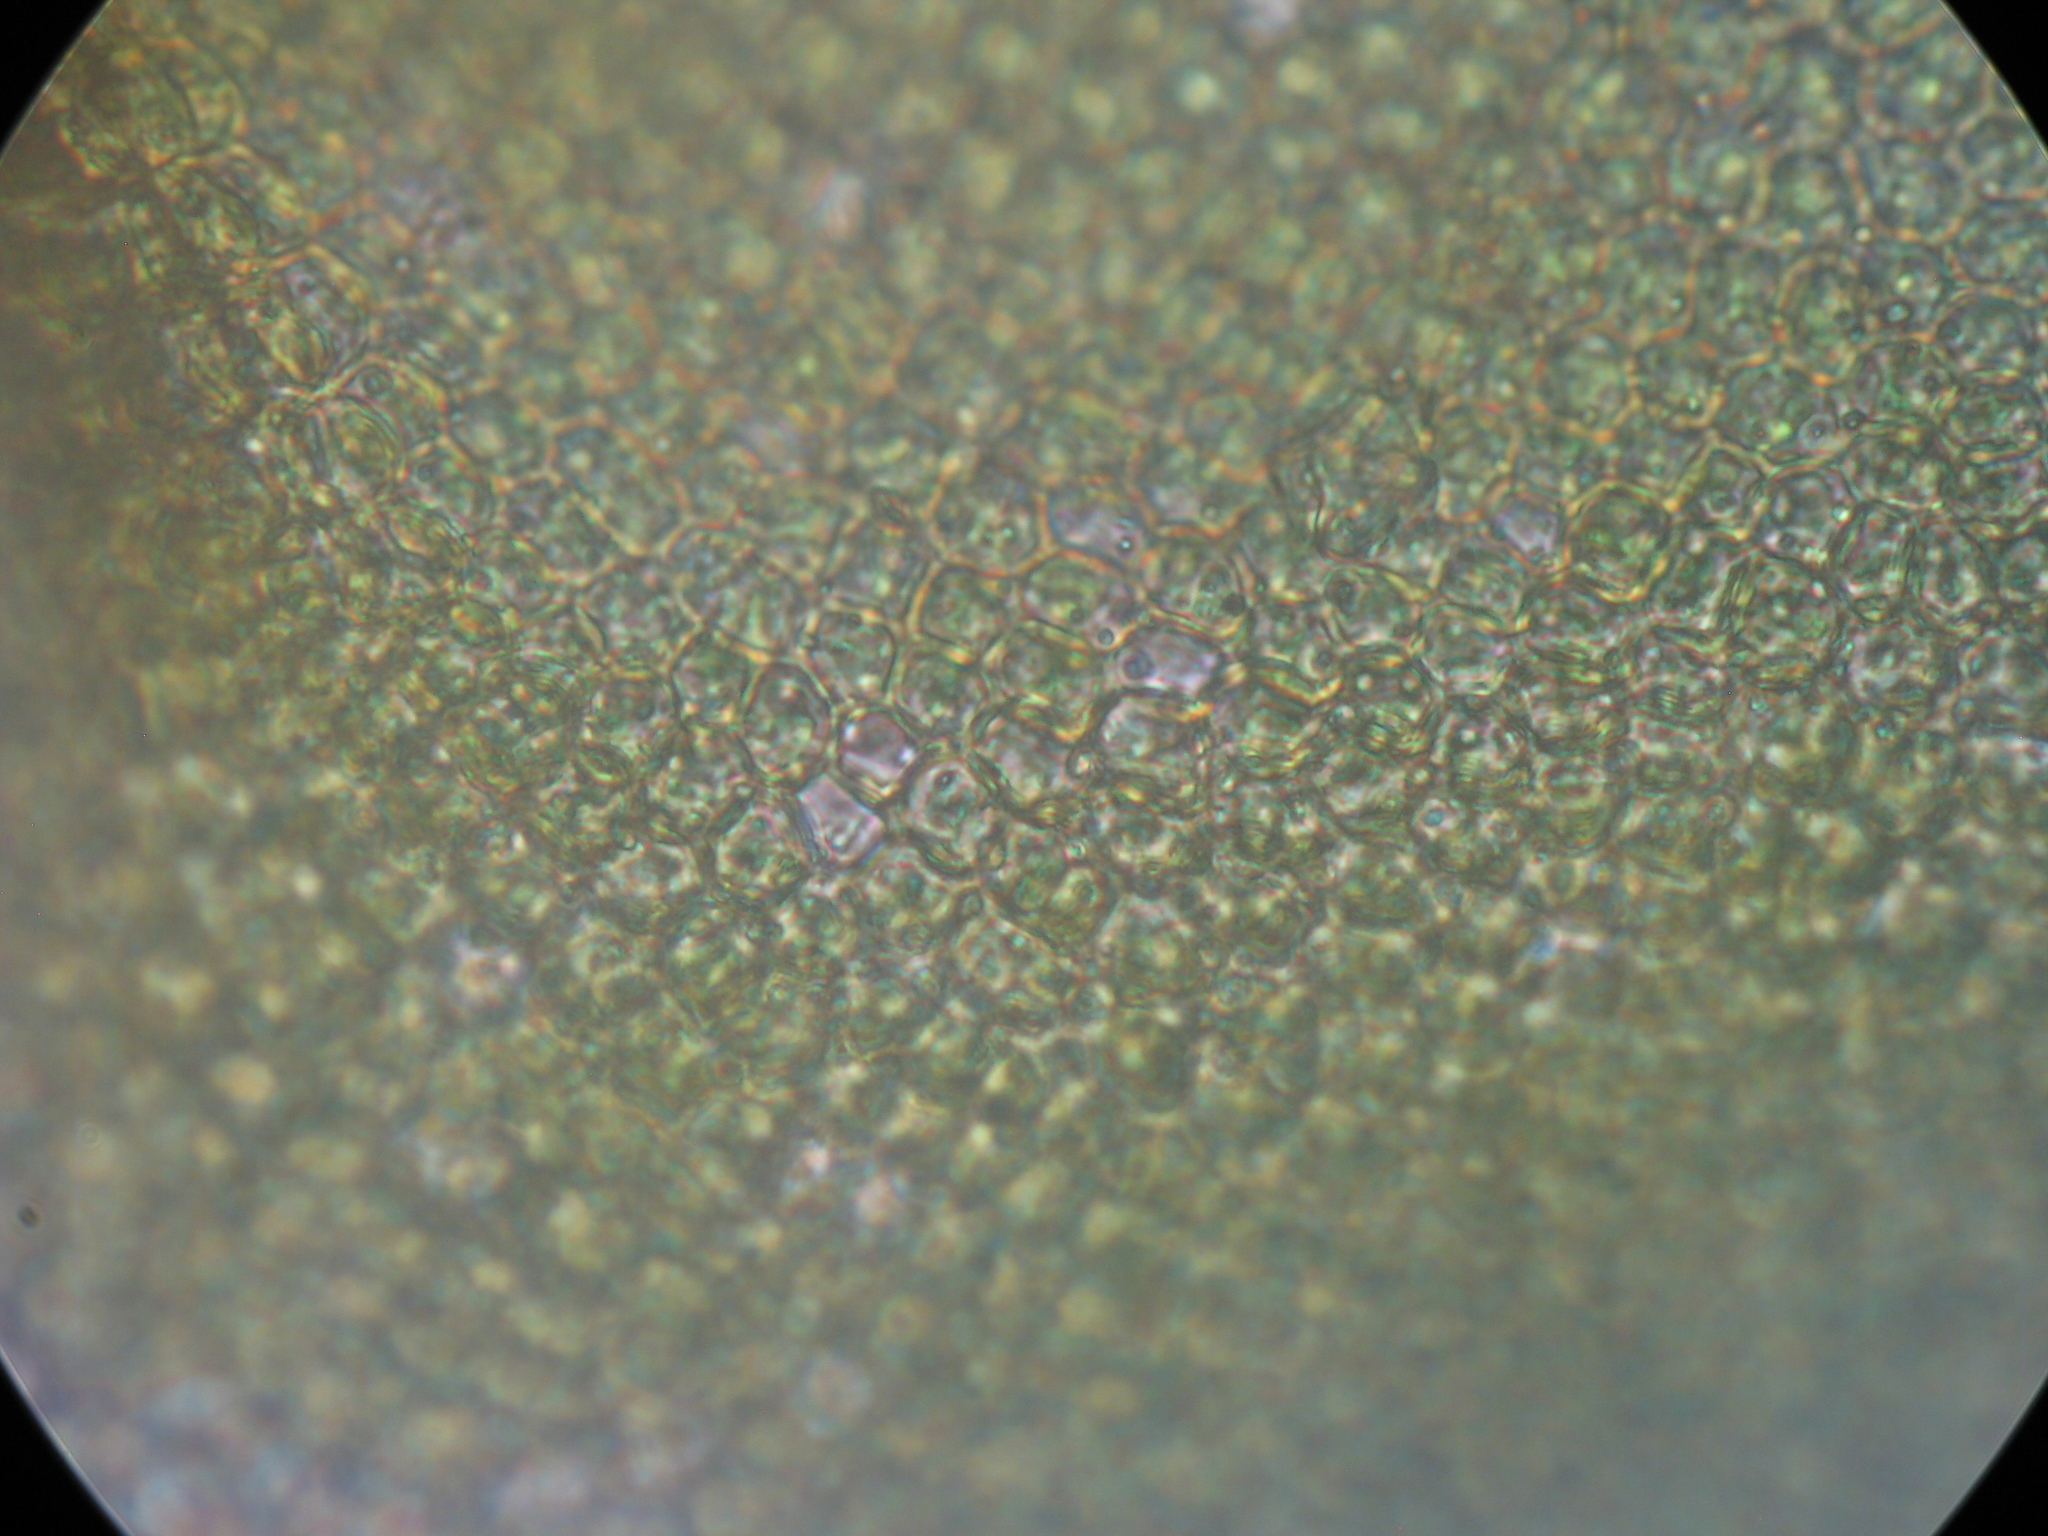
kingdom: Plantae
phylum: Bryophyta
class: Bryopsida
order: Hypnales
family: Thuidiaceae
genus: Thuidiopsis
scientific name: Thuidiopsis sparsa
